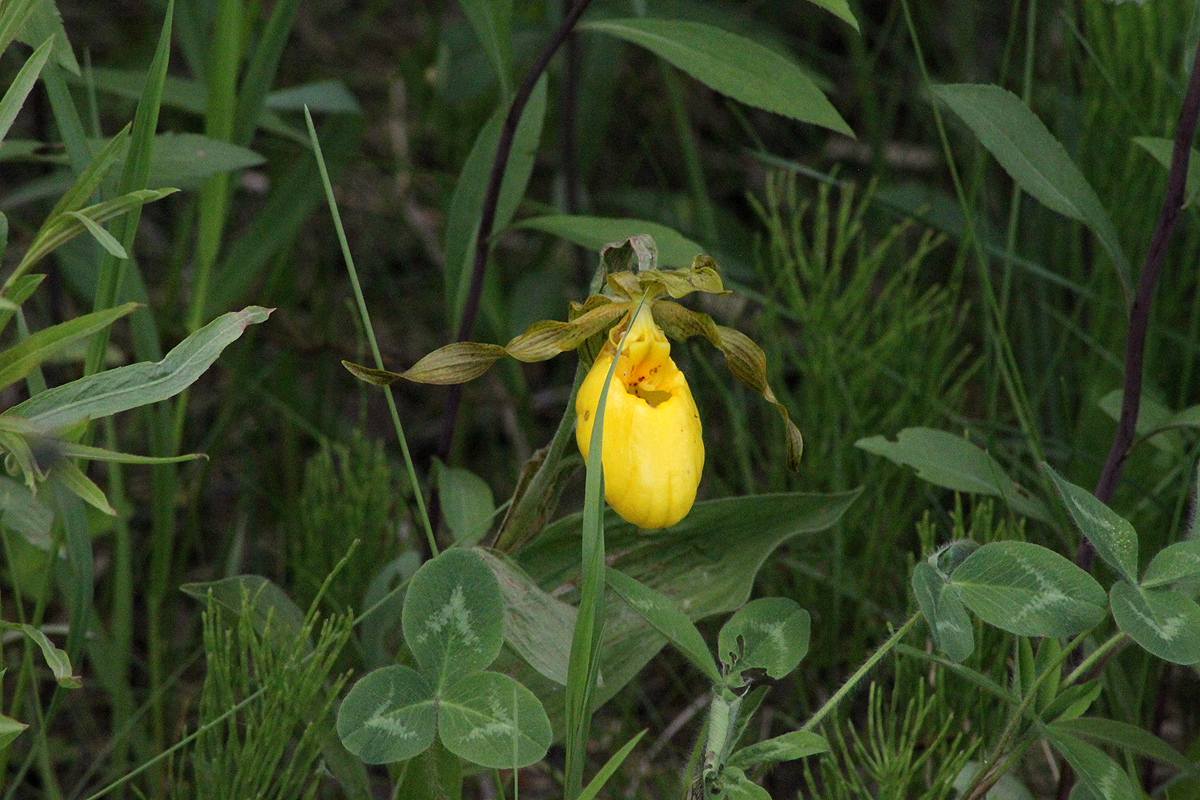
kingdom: Plantae
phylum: Tracheophyta
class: Liliopsida
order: Asparagales
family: Orchidaceae
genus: Cypripedium
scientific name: Cypripedium parviflorum
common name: American yellow lady's-slipper
